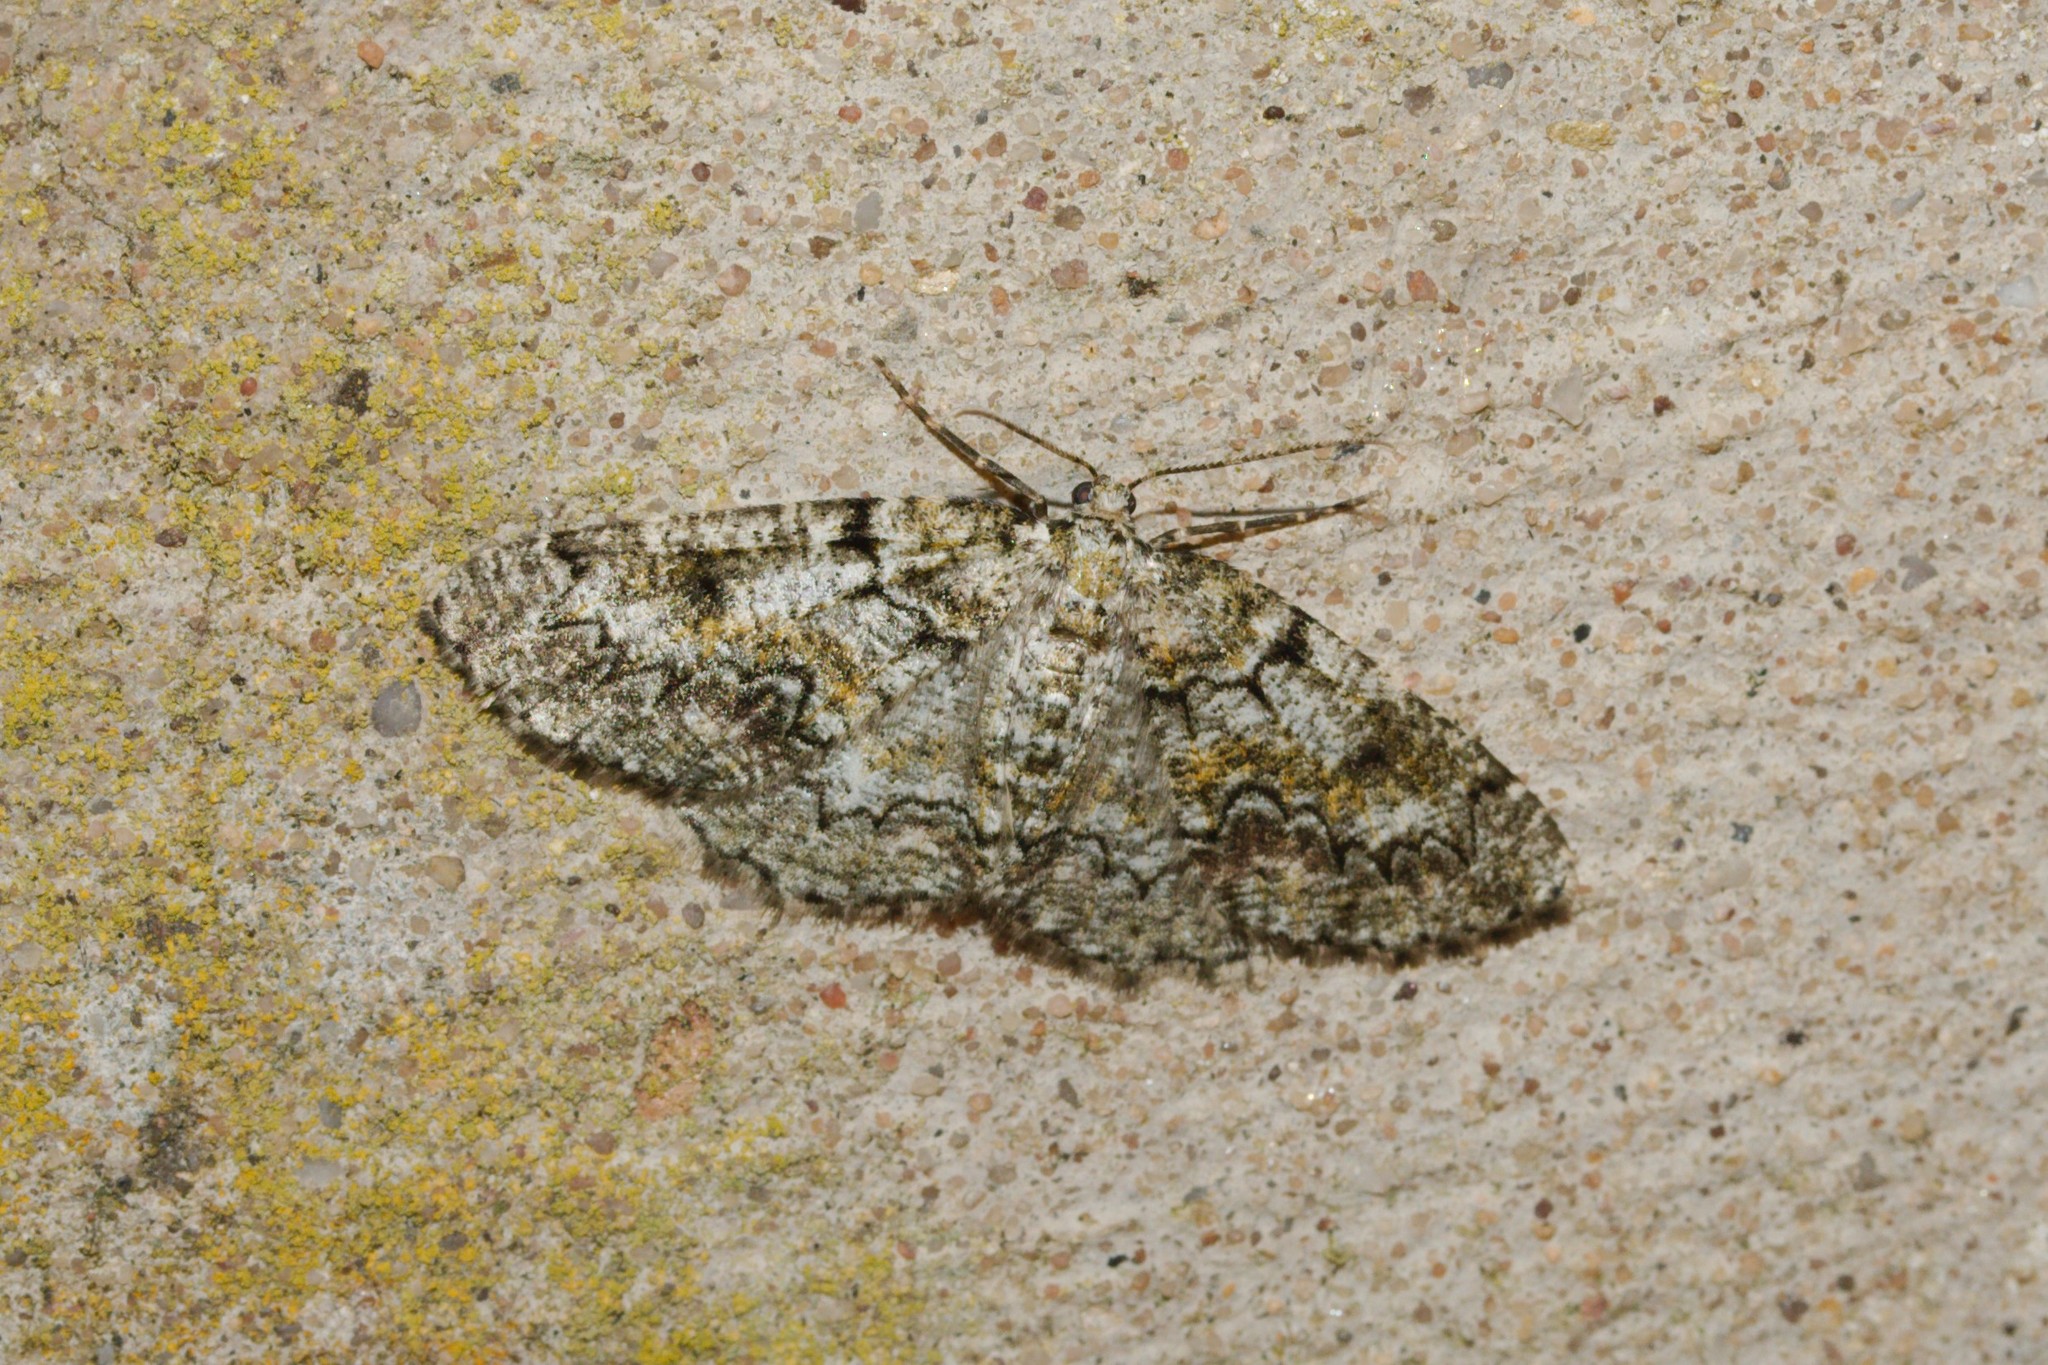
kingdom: Animalia
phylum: Arthropoda
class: Insecta
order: Lepidoptera
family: Geometridae
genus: Cleorodes
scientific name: Cleorodes lichenaria
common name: Brussels lace
